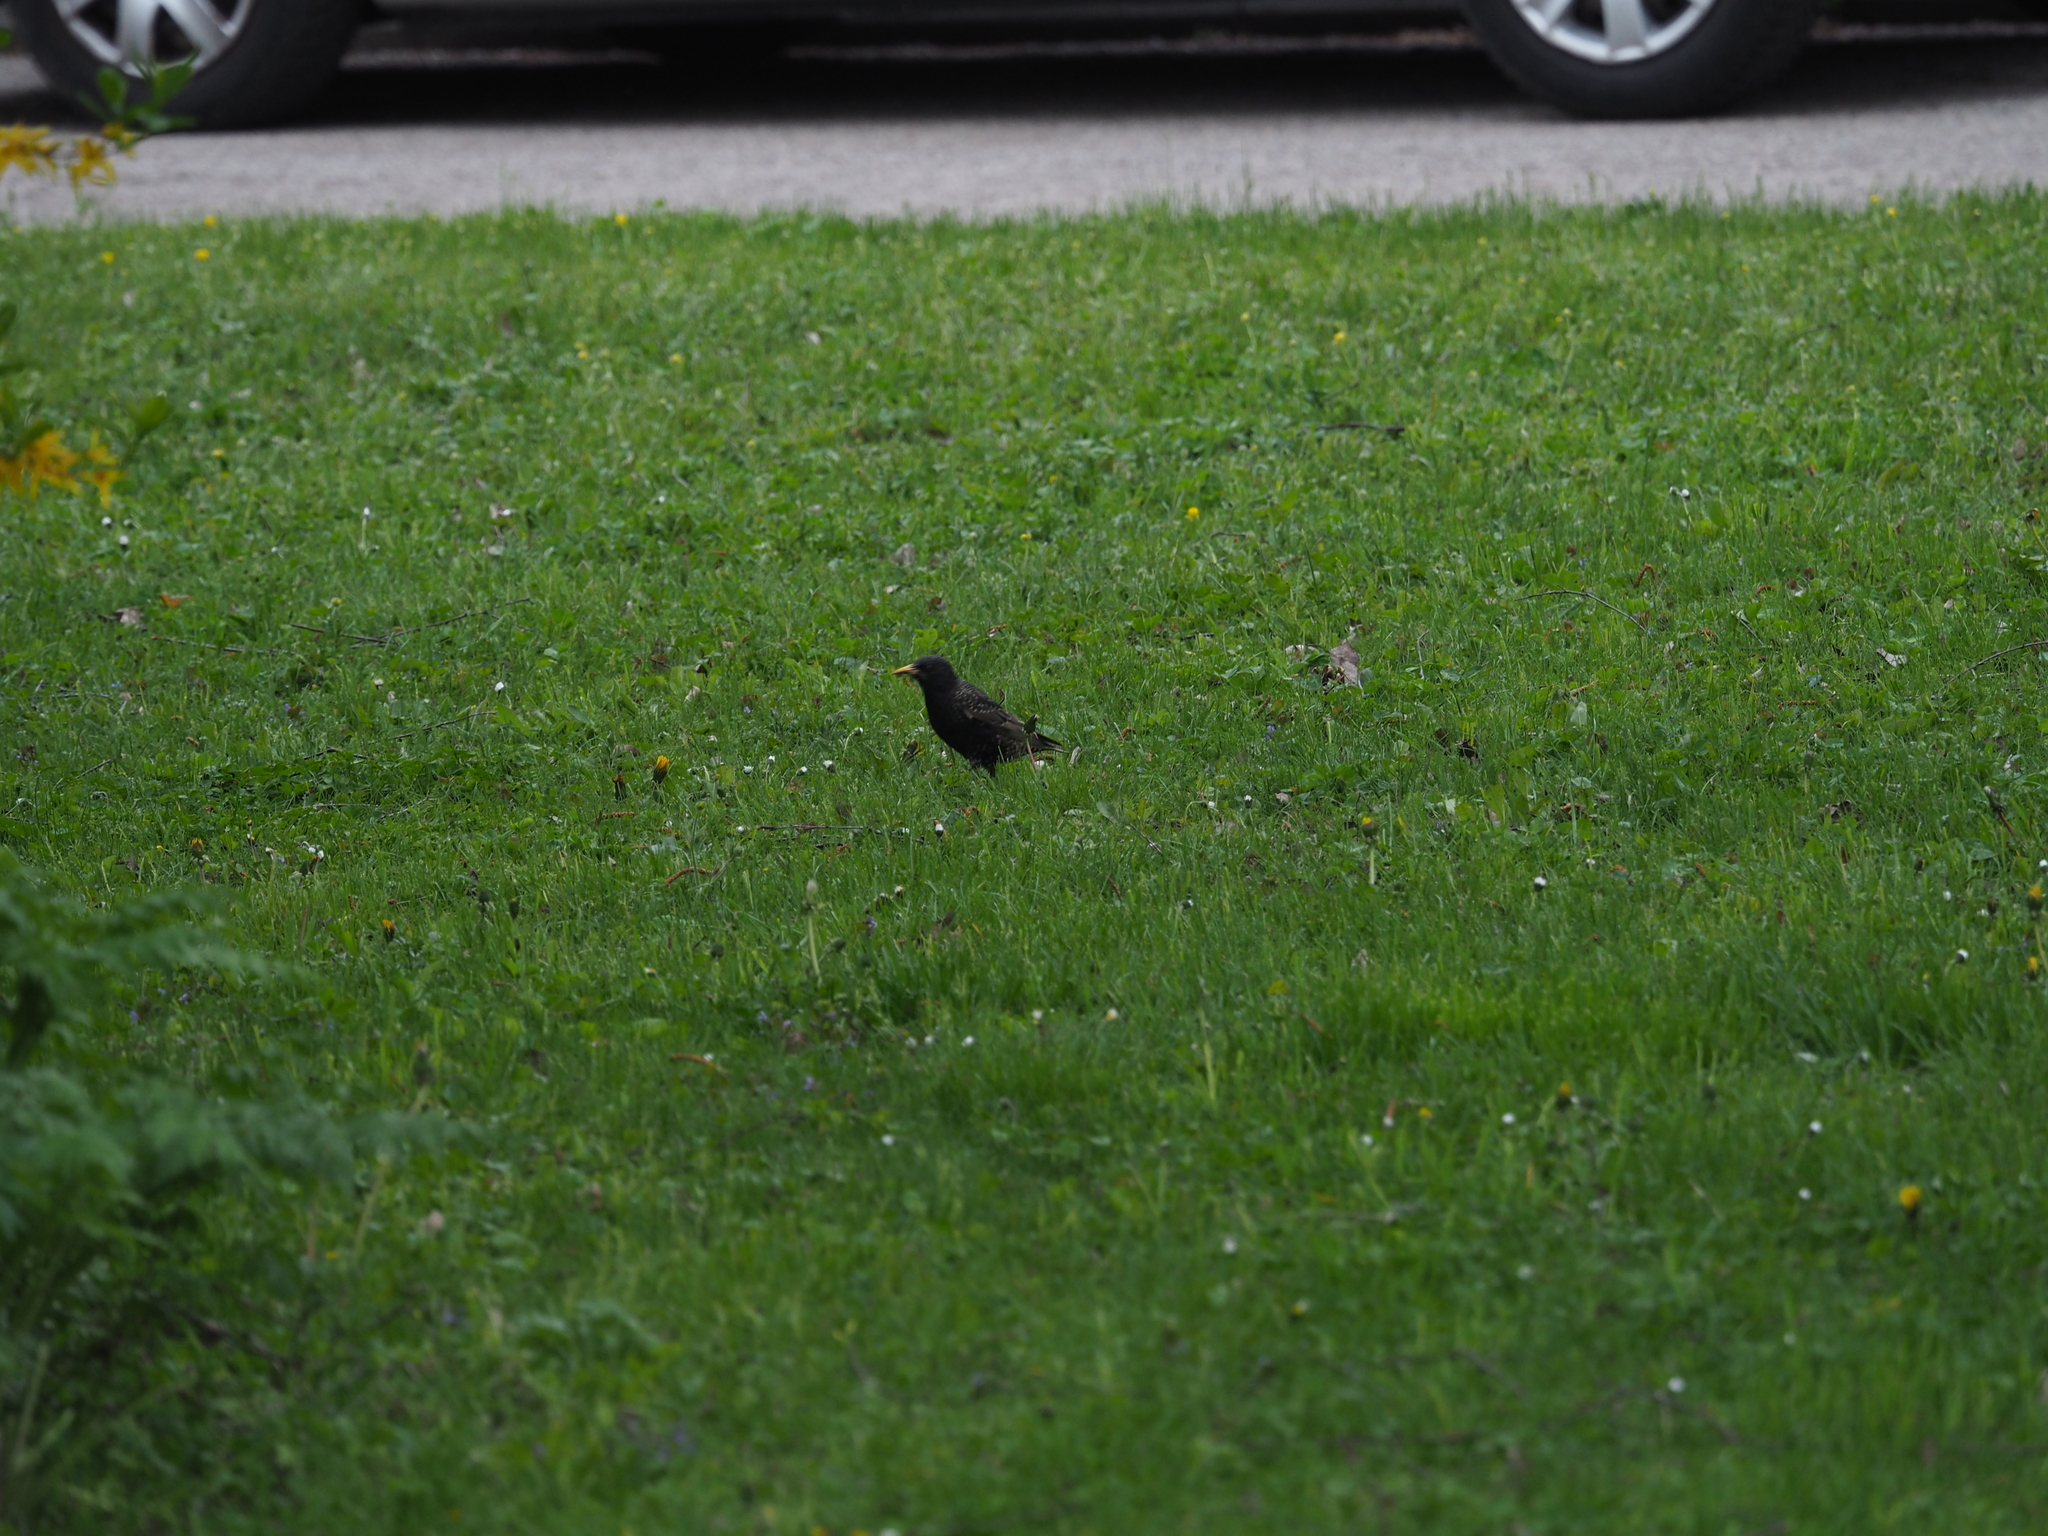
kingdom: Animalia
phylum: Chordata
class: Aves
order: Passeriformes
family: Sturnidae
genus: Sturnus
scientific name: Sturnus vulgaris
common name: Common starling
